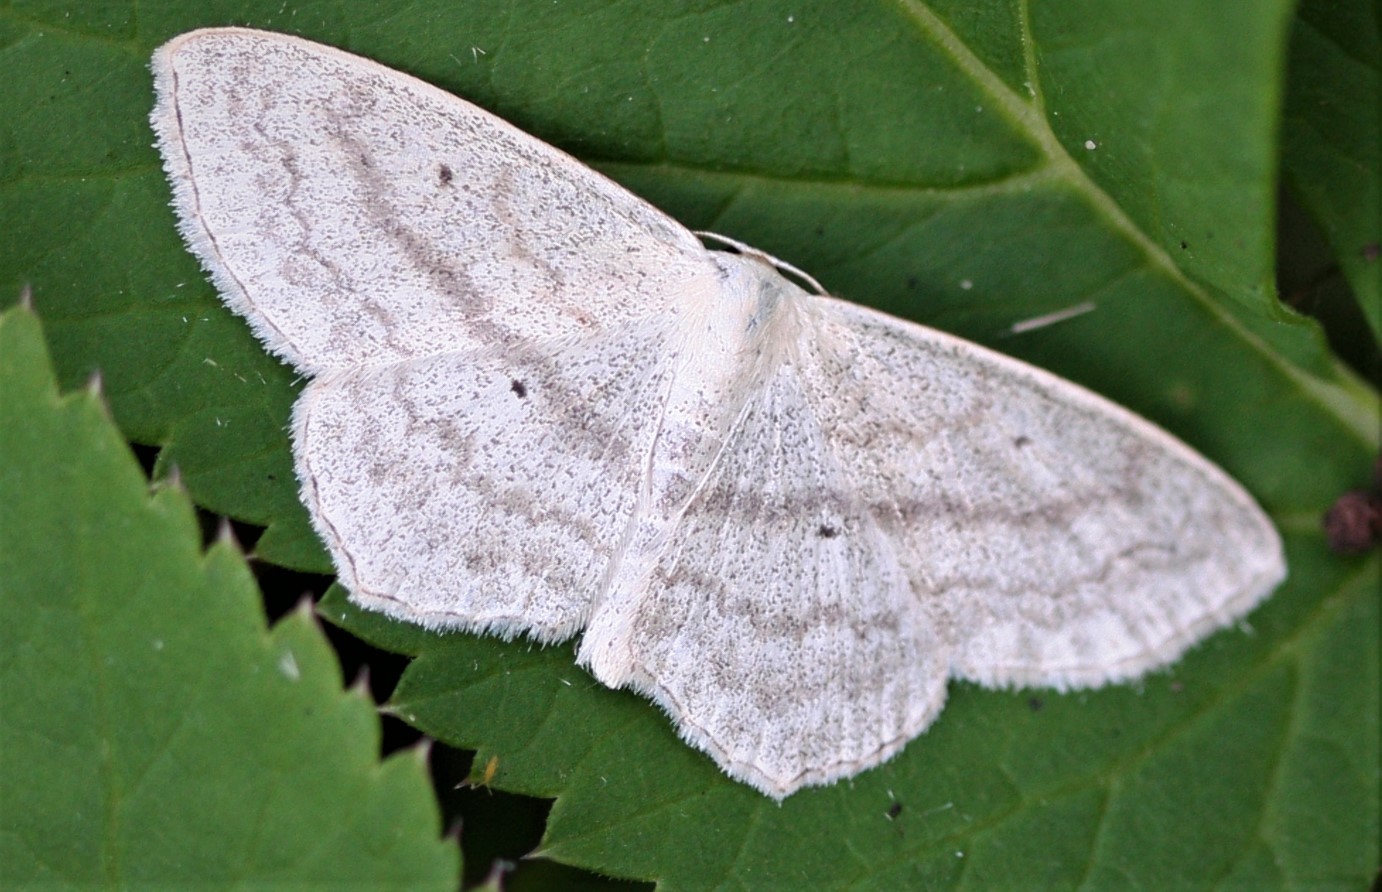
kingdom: Animalia
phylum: Arthropoda
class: Insecta
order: Lepidoptera
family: Geometridae
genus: Scopula
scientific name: Scopula nigropunctata
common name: Sub-angled wave
